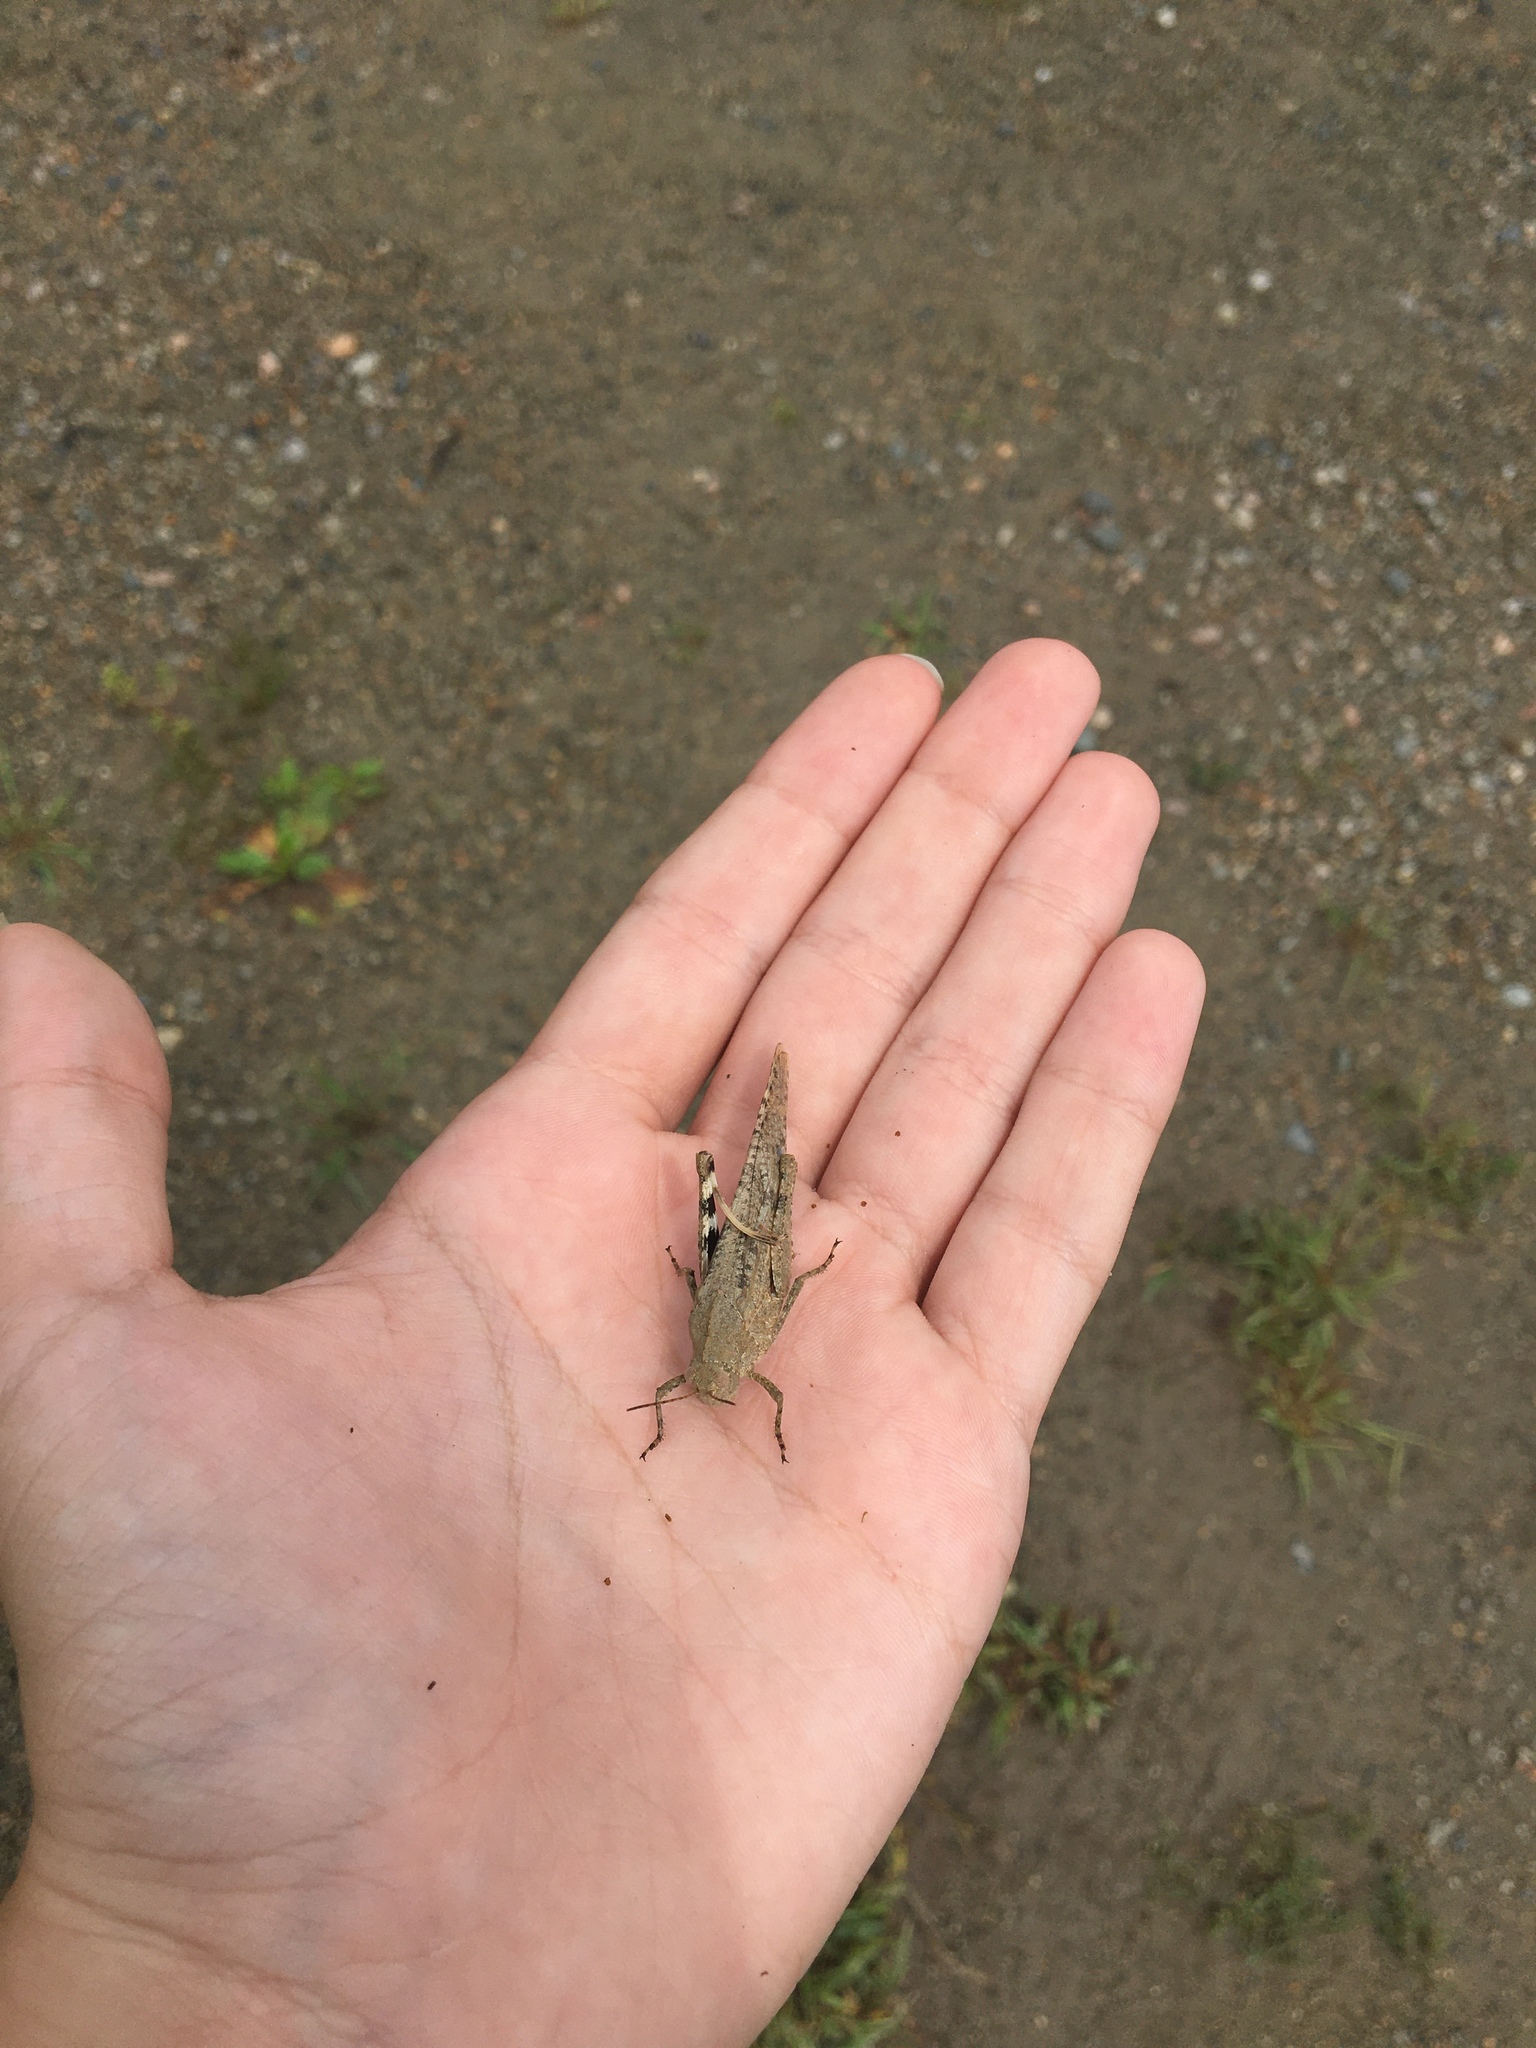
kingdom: Animalia
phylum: Arthropoda
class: Insecta
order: Orthoptera
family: Acrididae
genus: Dissosteira
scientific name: Dissosteira carolina
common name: Carolina grasshopper
